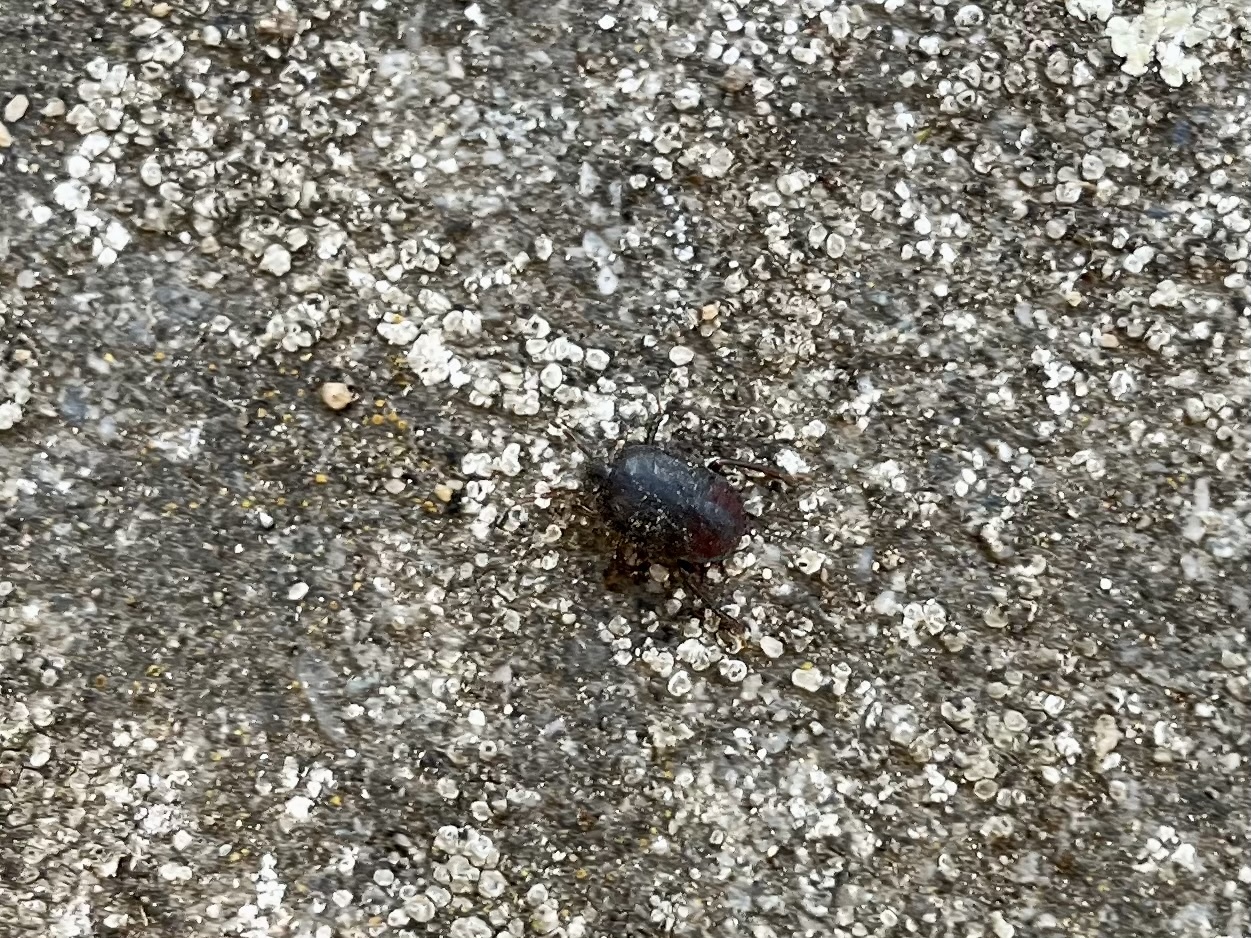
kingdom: Animalia
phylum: Arthropoda
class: Insecta
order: Hemiptera
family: Cydnidae
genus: Cydnus
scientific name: Cydnus aterrimus
